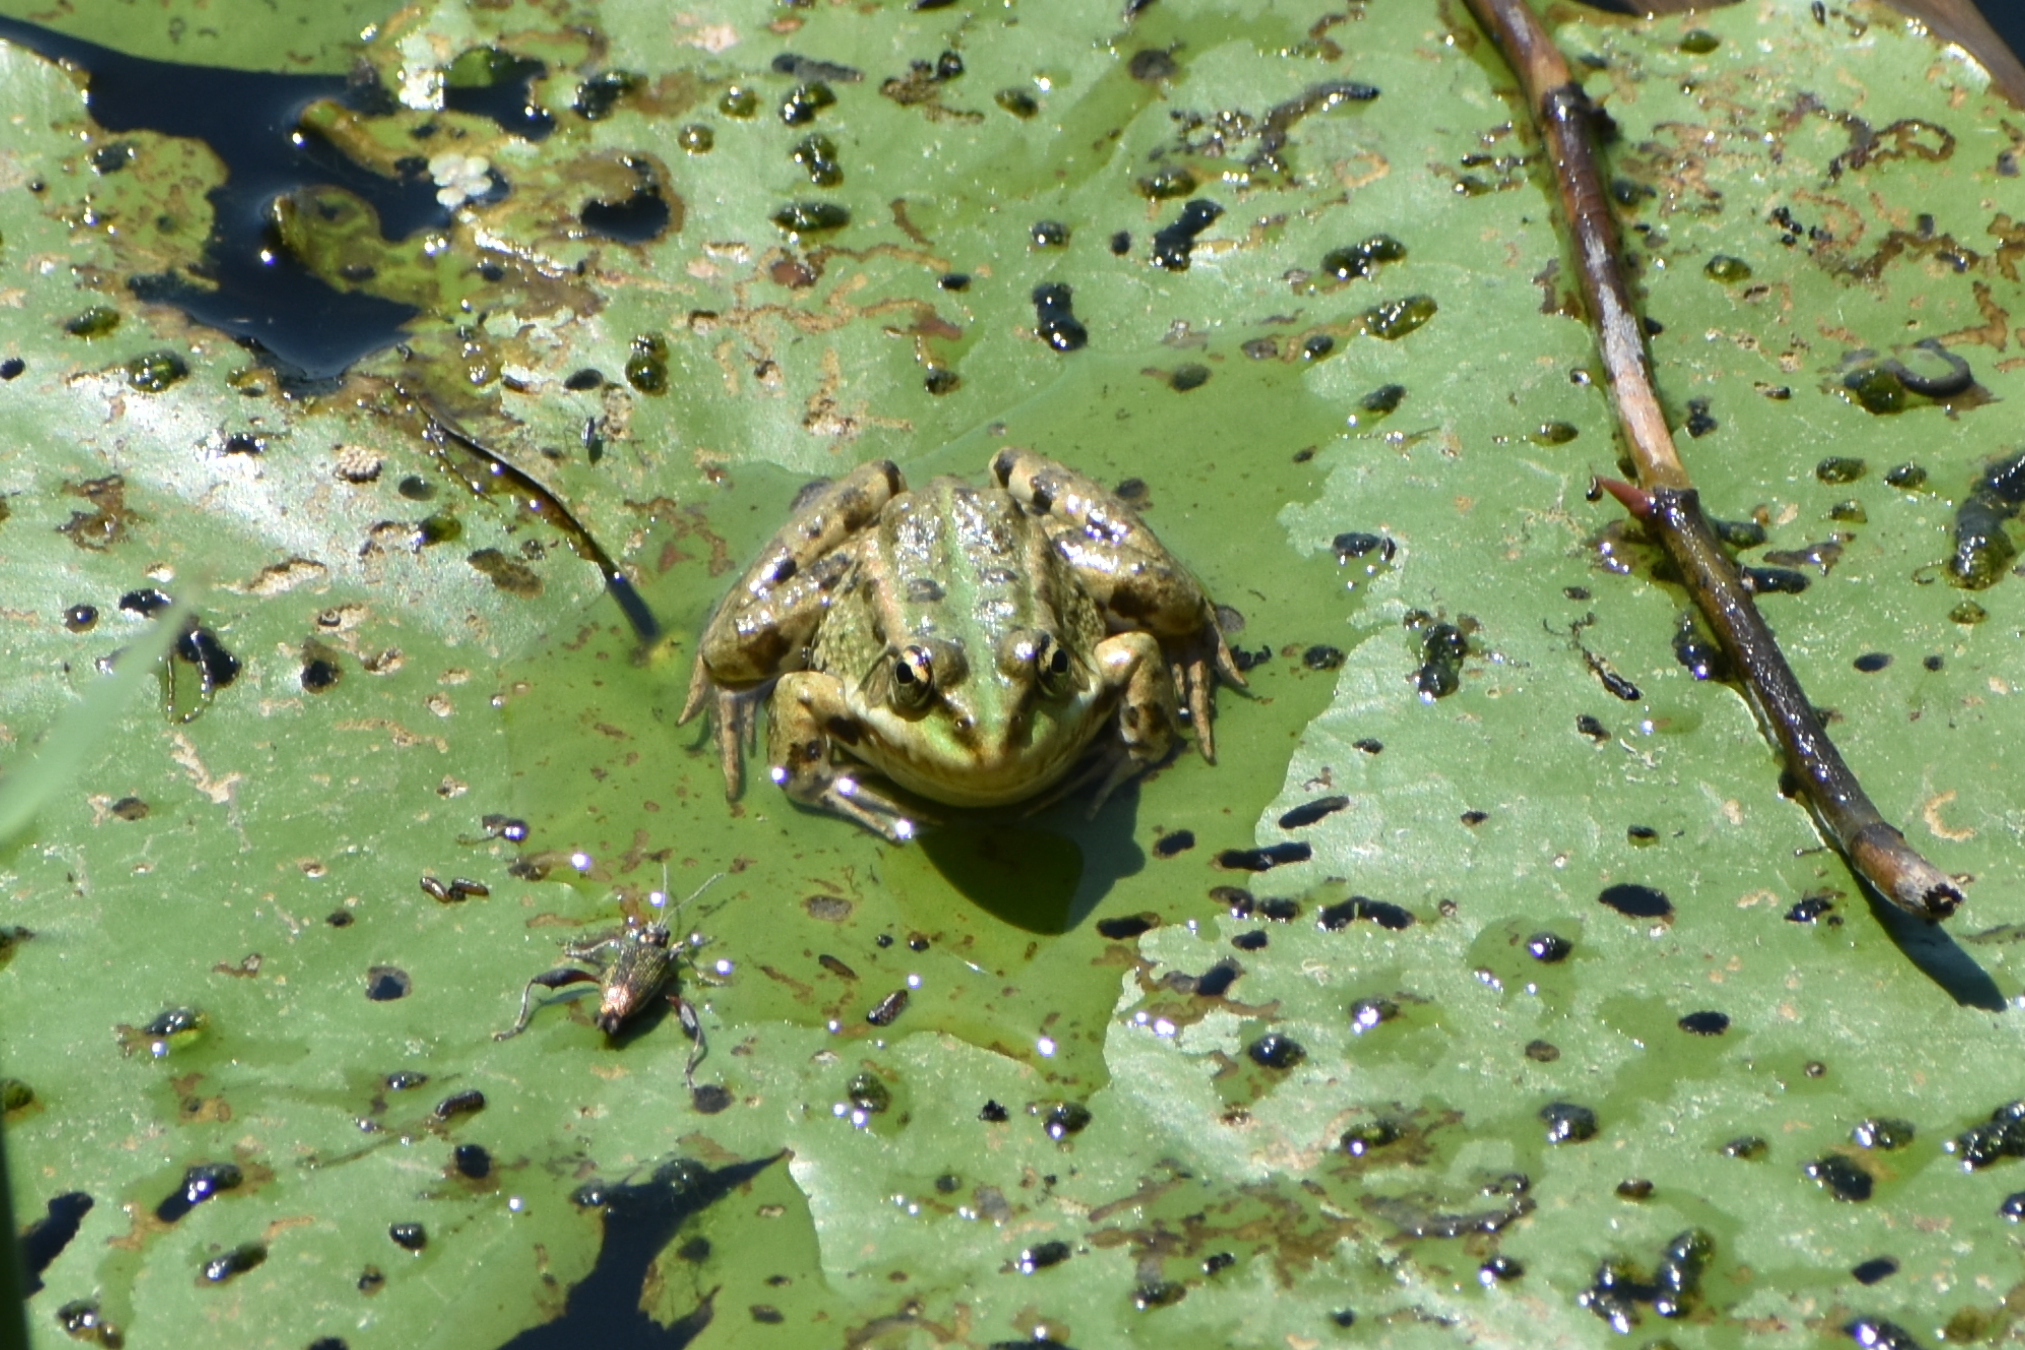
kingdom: Animalia
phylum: Chordata
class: Amphibia
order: Anura
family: Ranidae
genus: Pelophylax
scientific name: Pelophylax ridibundus
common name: Marsh frog
